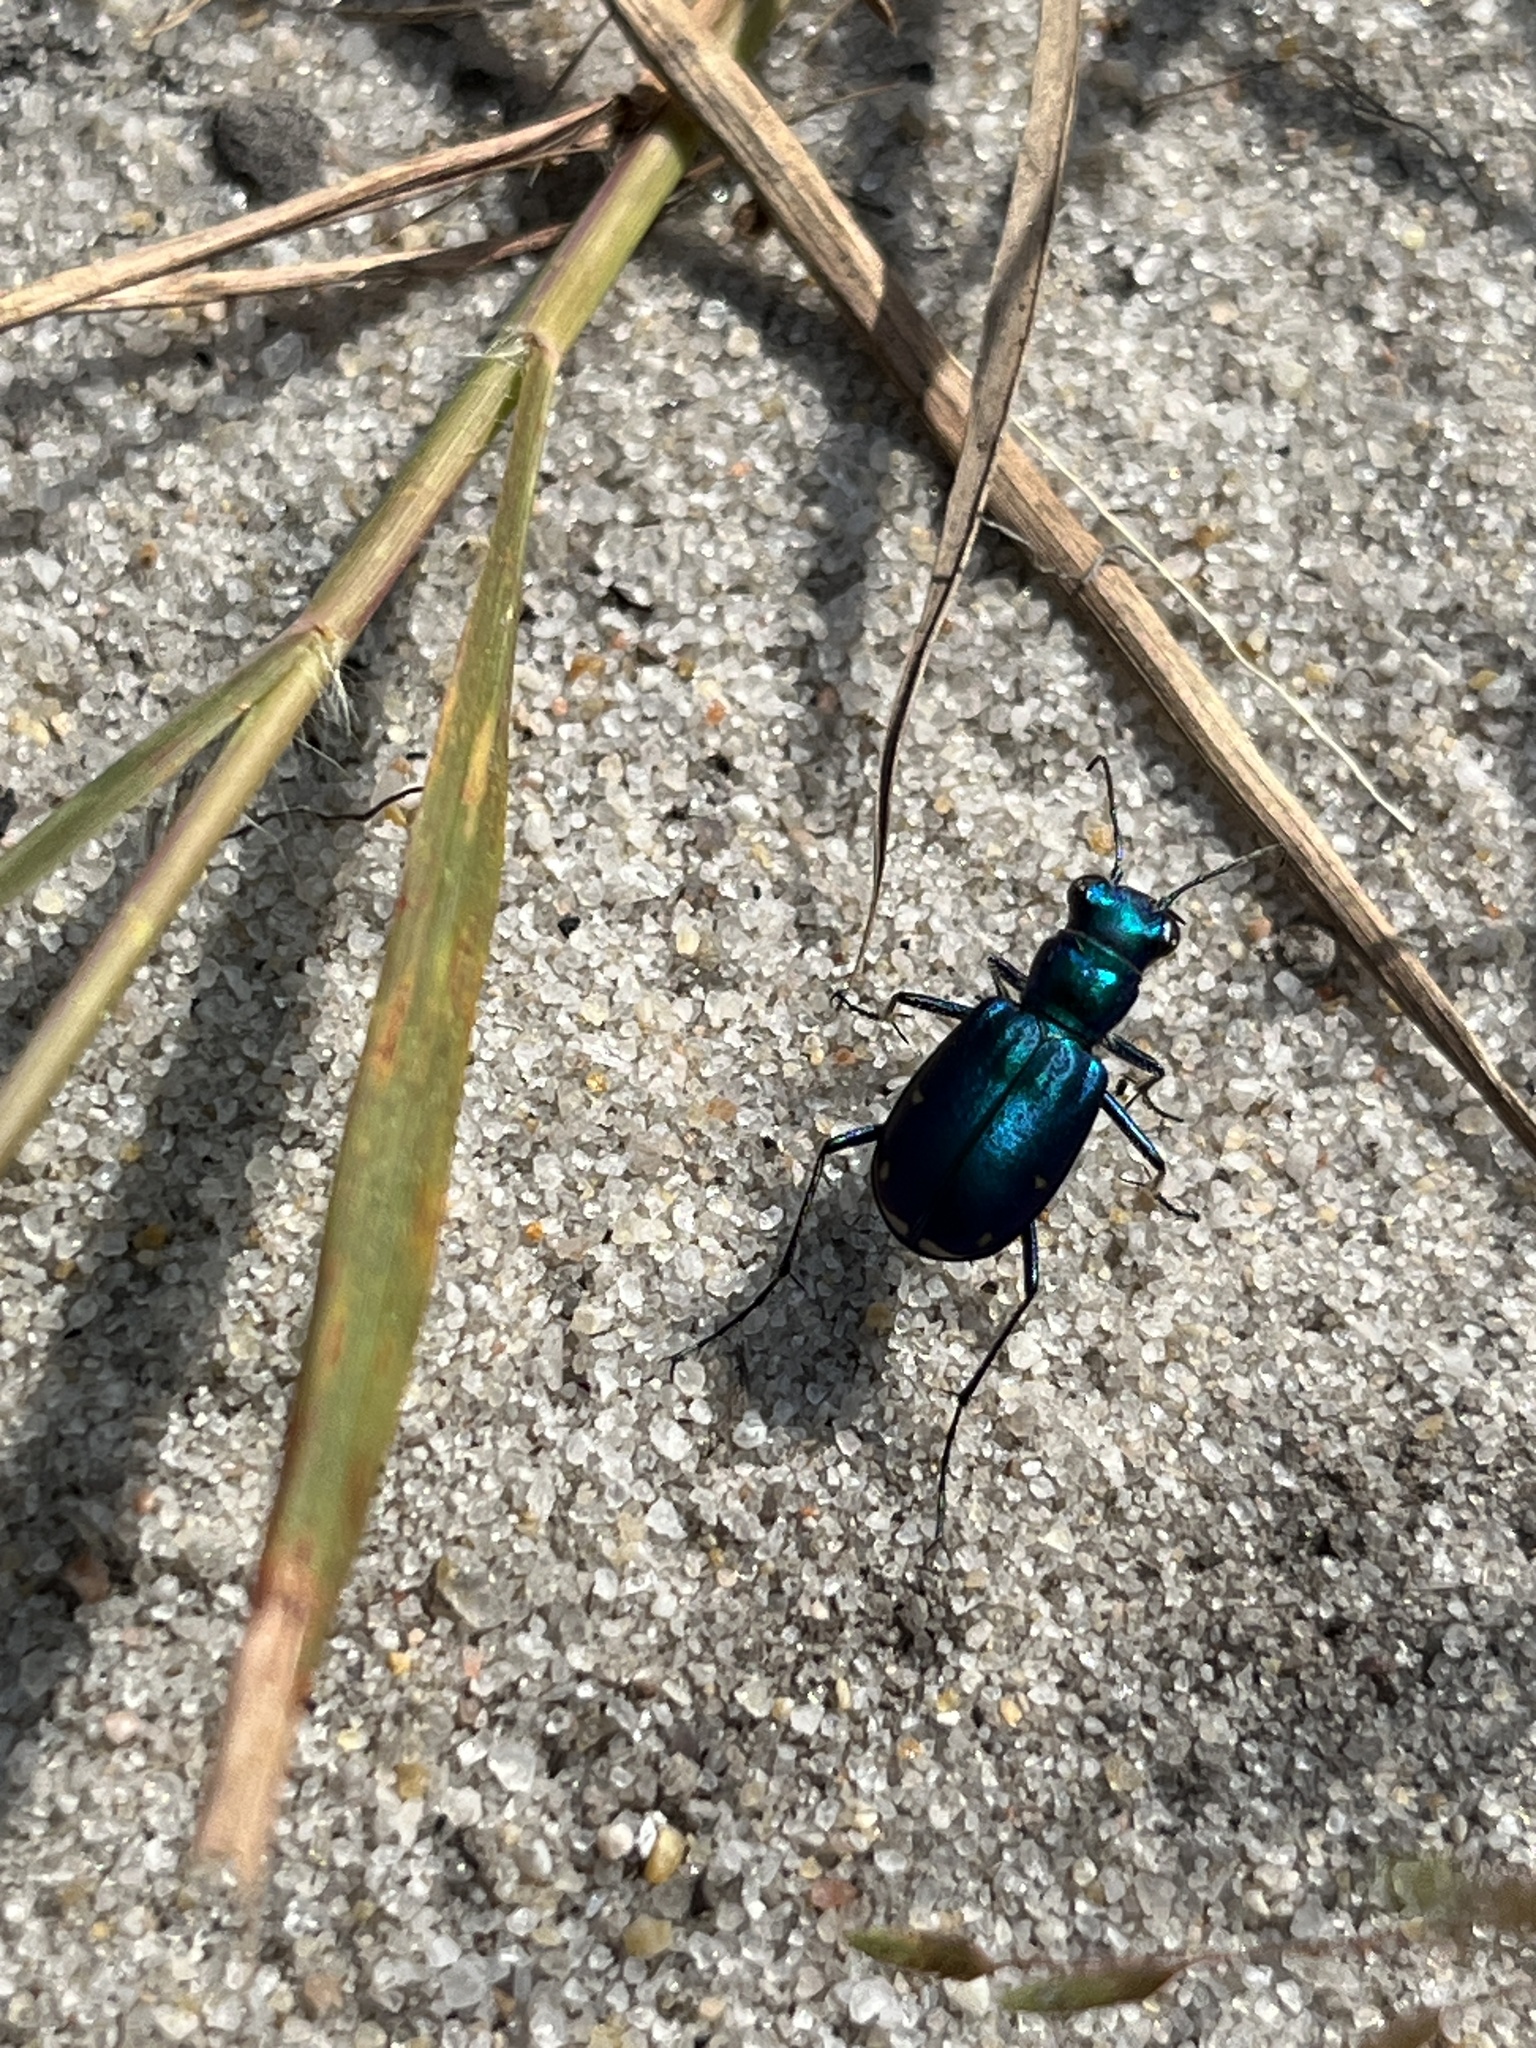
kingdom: Animalia
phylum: Arthropoda
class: Insecta
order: Coleoptera
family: Carabidae
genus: Cicindela
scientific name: Cicindela scutellaris
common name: Festive tiger beetle
